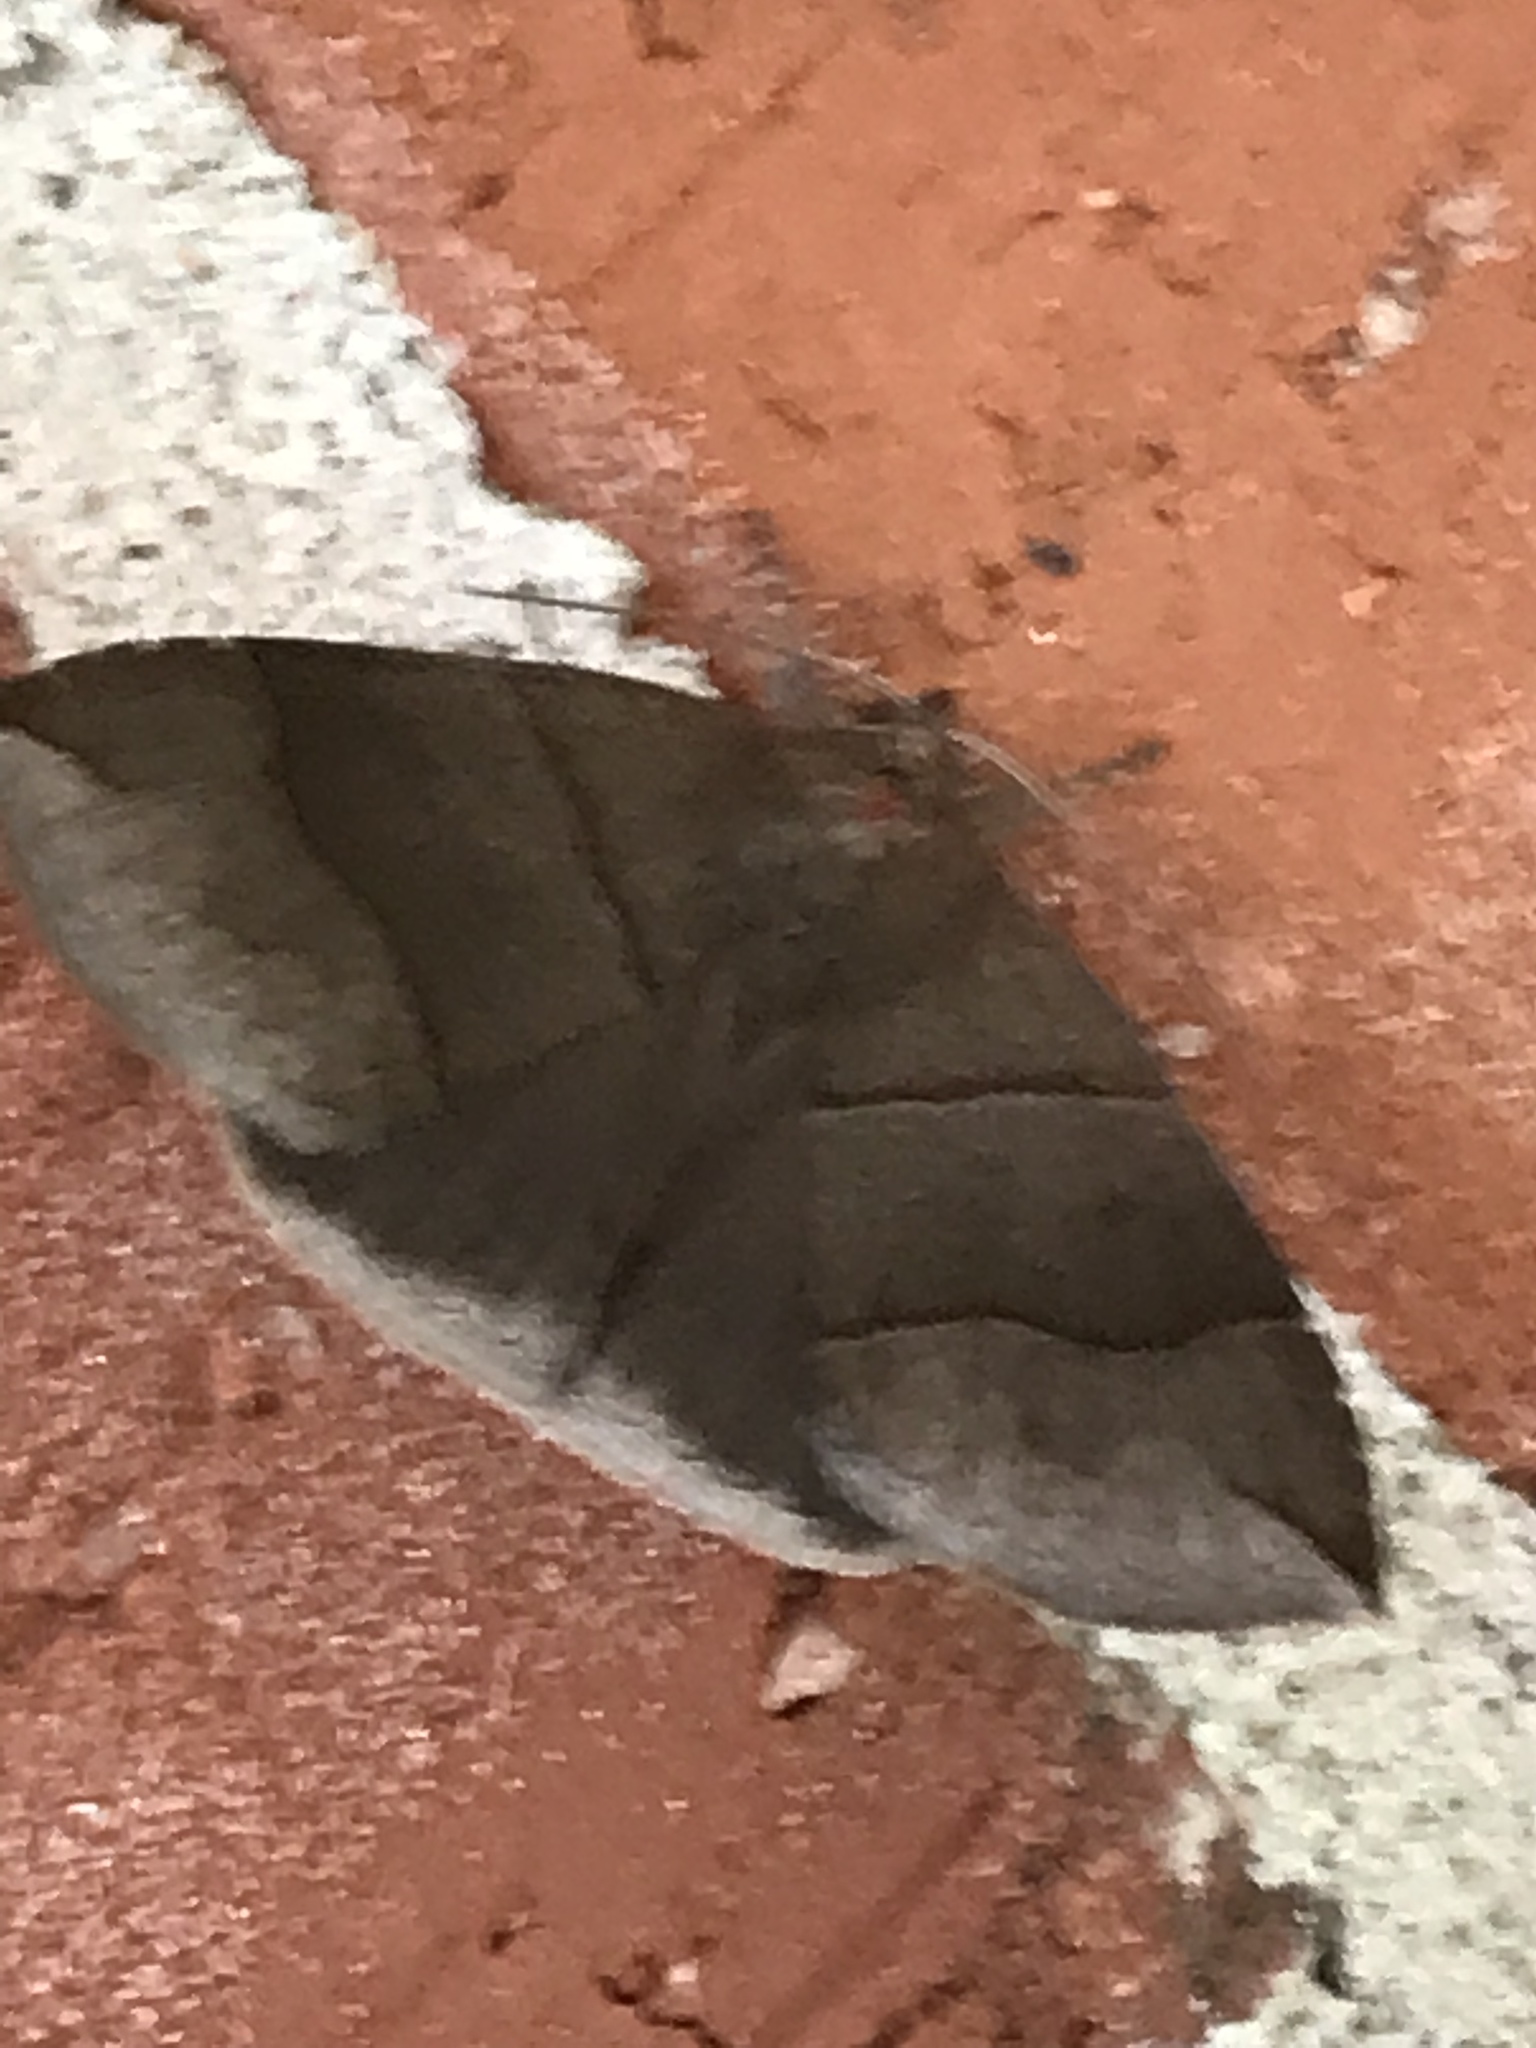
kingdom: Animalia
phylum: Arthropoda
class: Insecta
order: Lepidoptera
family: Erebidae
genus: Parallelia
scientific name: Parallelia bistriaris
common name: Maple looper moth
